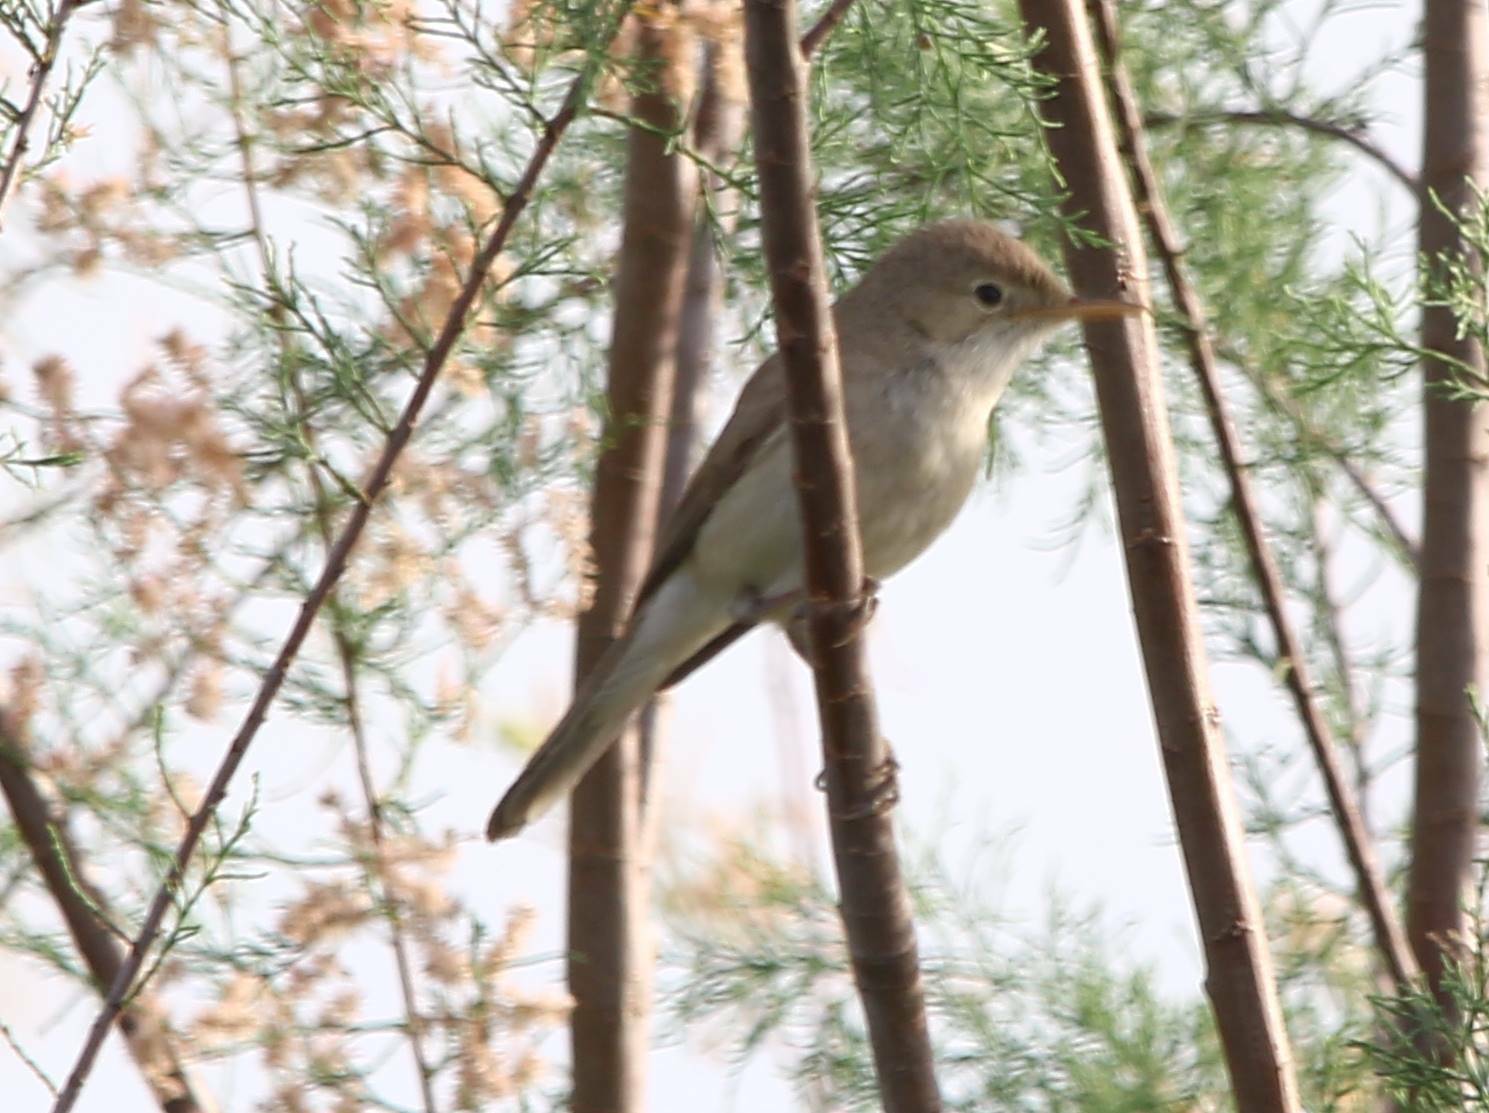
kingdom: Animalia
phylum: Chordata
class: Aves
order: Passeriformes
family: Acrocephalidae
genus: Acrocephalus
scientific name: Acrocephalus scirpaceus
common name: Eurasian reed warbler
